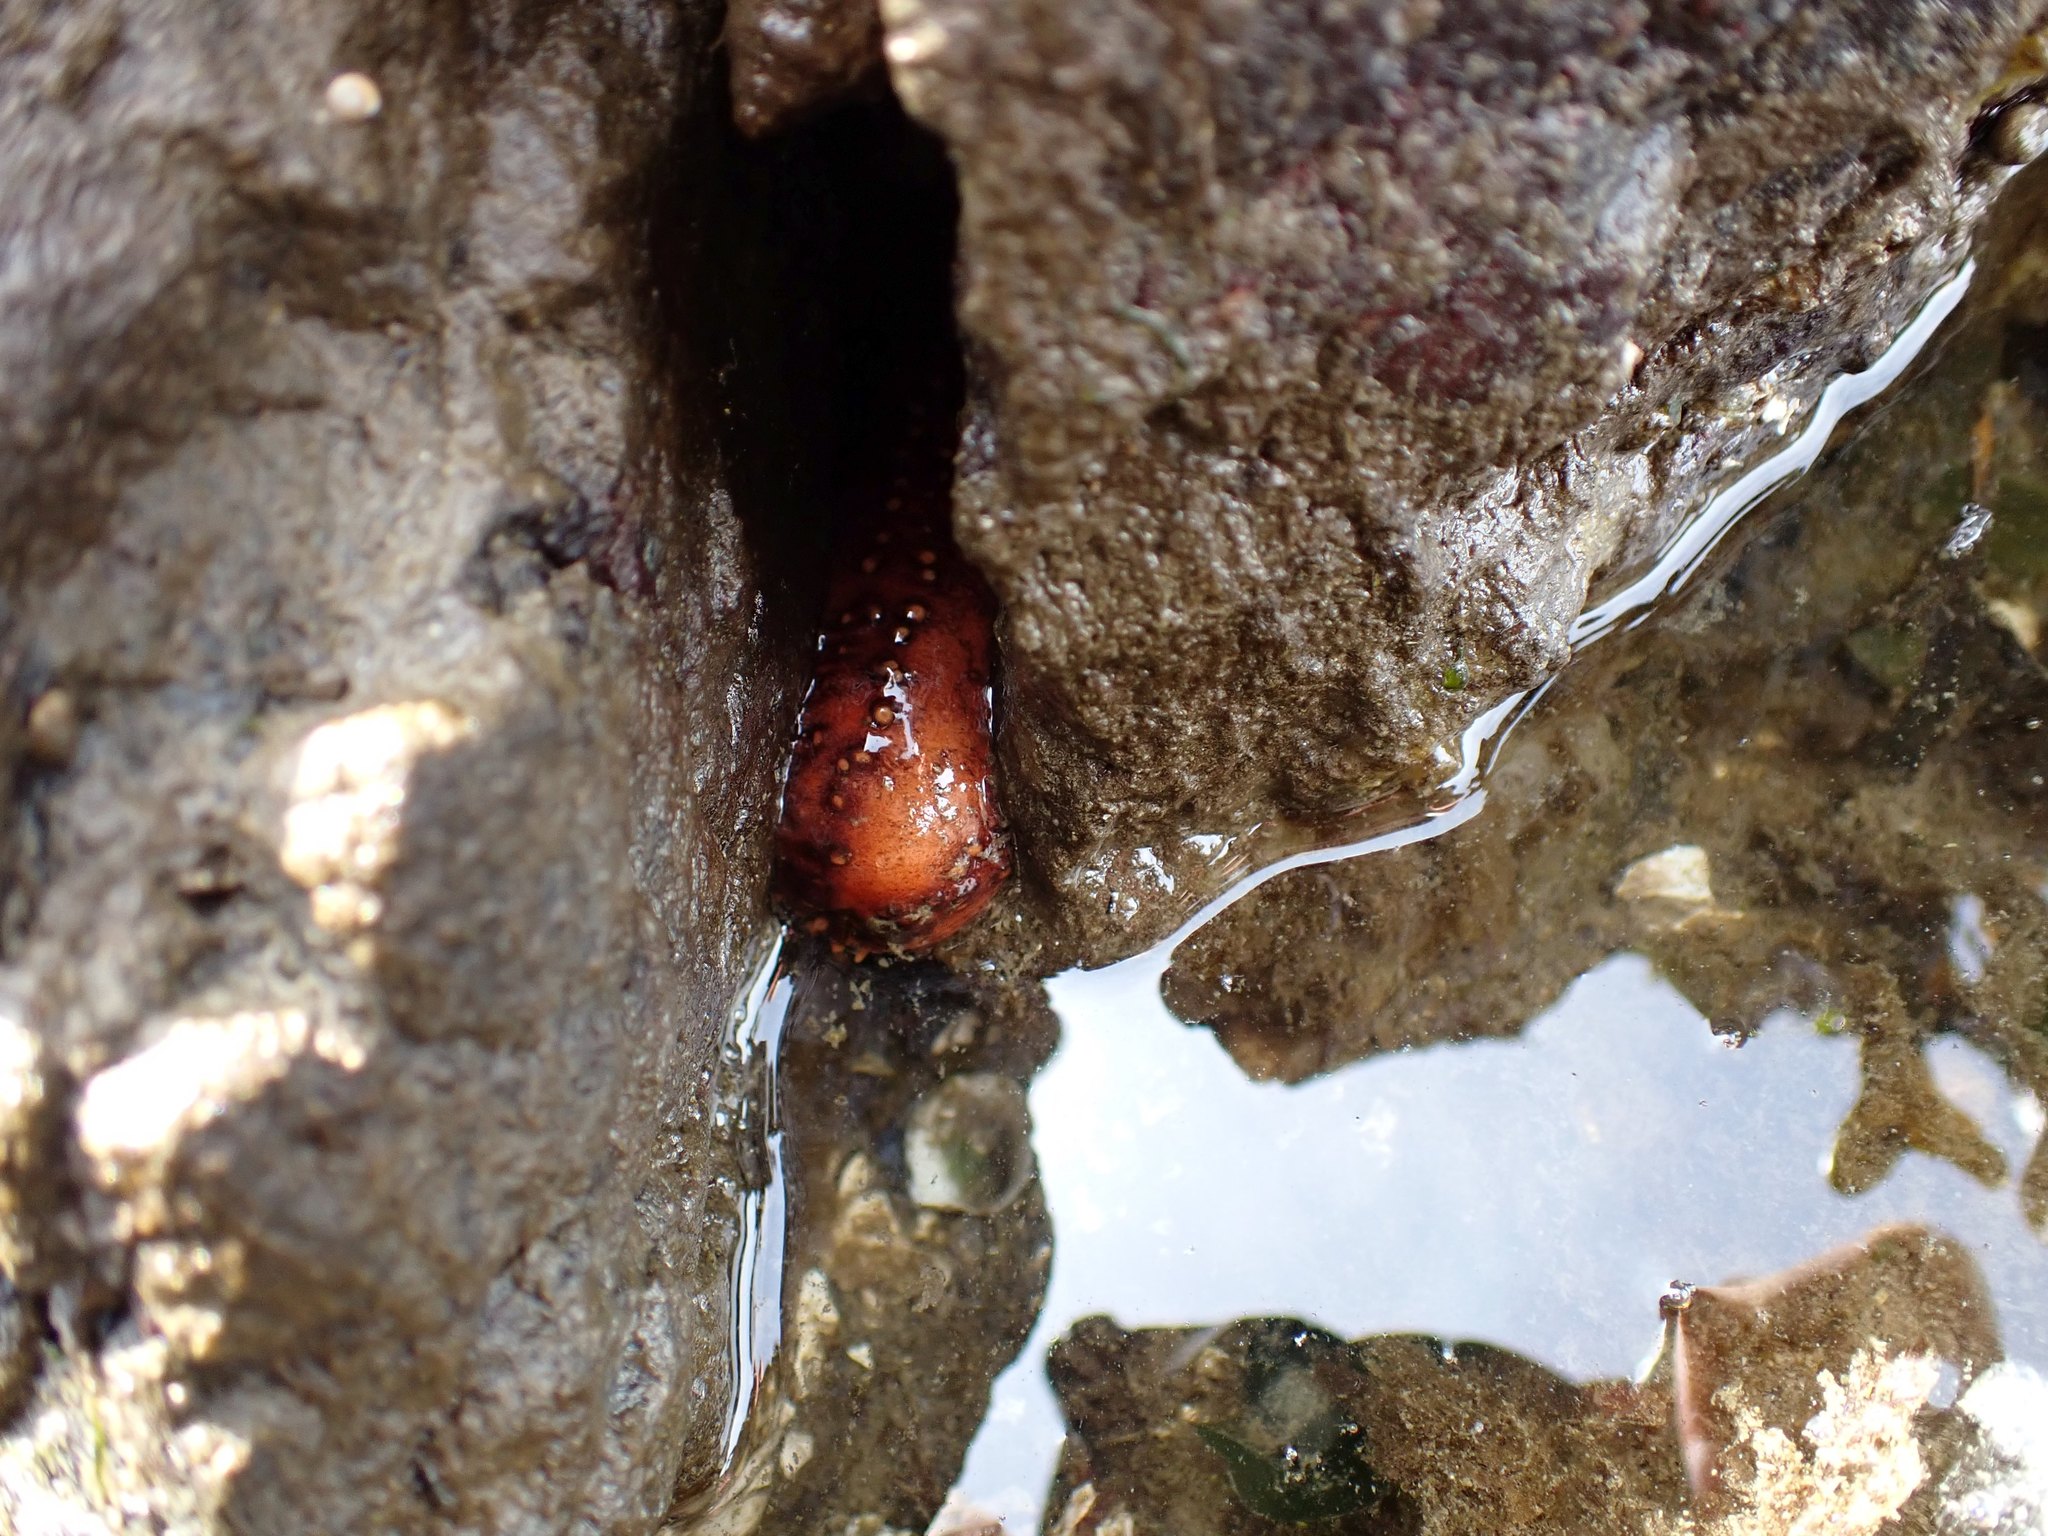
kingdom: Animalia
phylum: Echinodermata
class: Holothuroidea
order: Dendrochirotida
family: Cucumariidae
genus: Cucumaria
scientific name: Cucumaria miniata
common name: Orange sea cucumber
